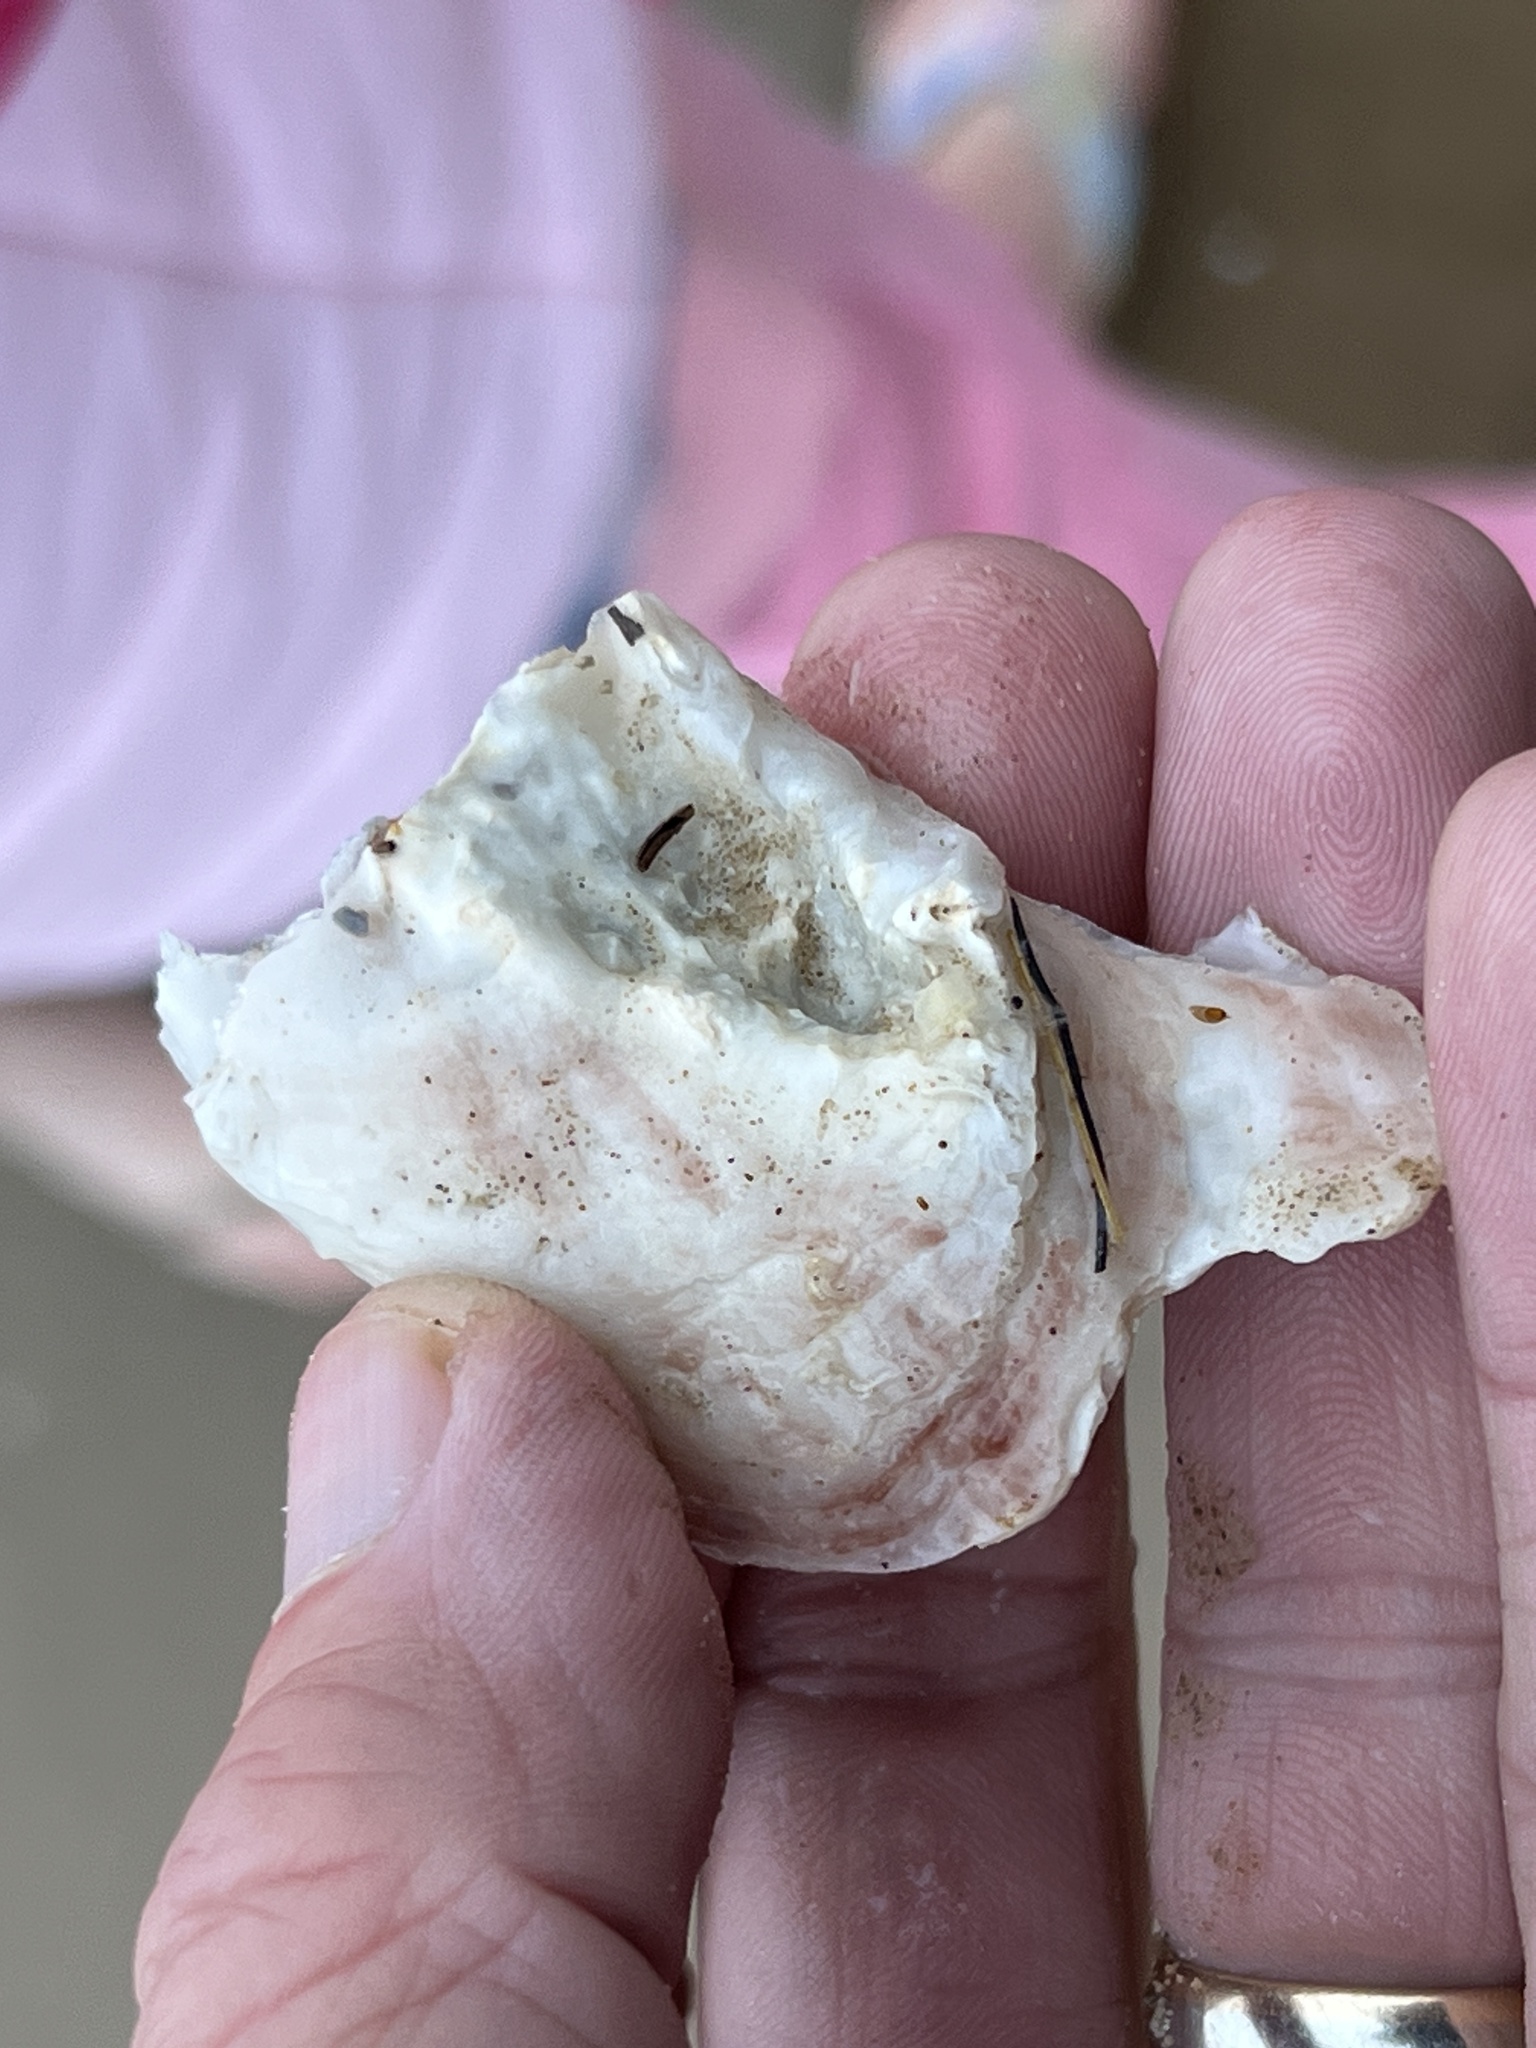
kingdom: Animalia
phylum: Mollusca
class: Bivalvia
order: Ostreida
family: Ostreidae
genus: Crassostrea
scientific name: Crassostrea virginica
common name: American oyster
